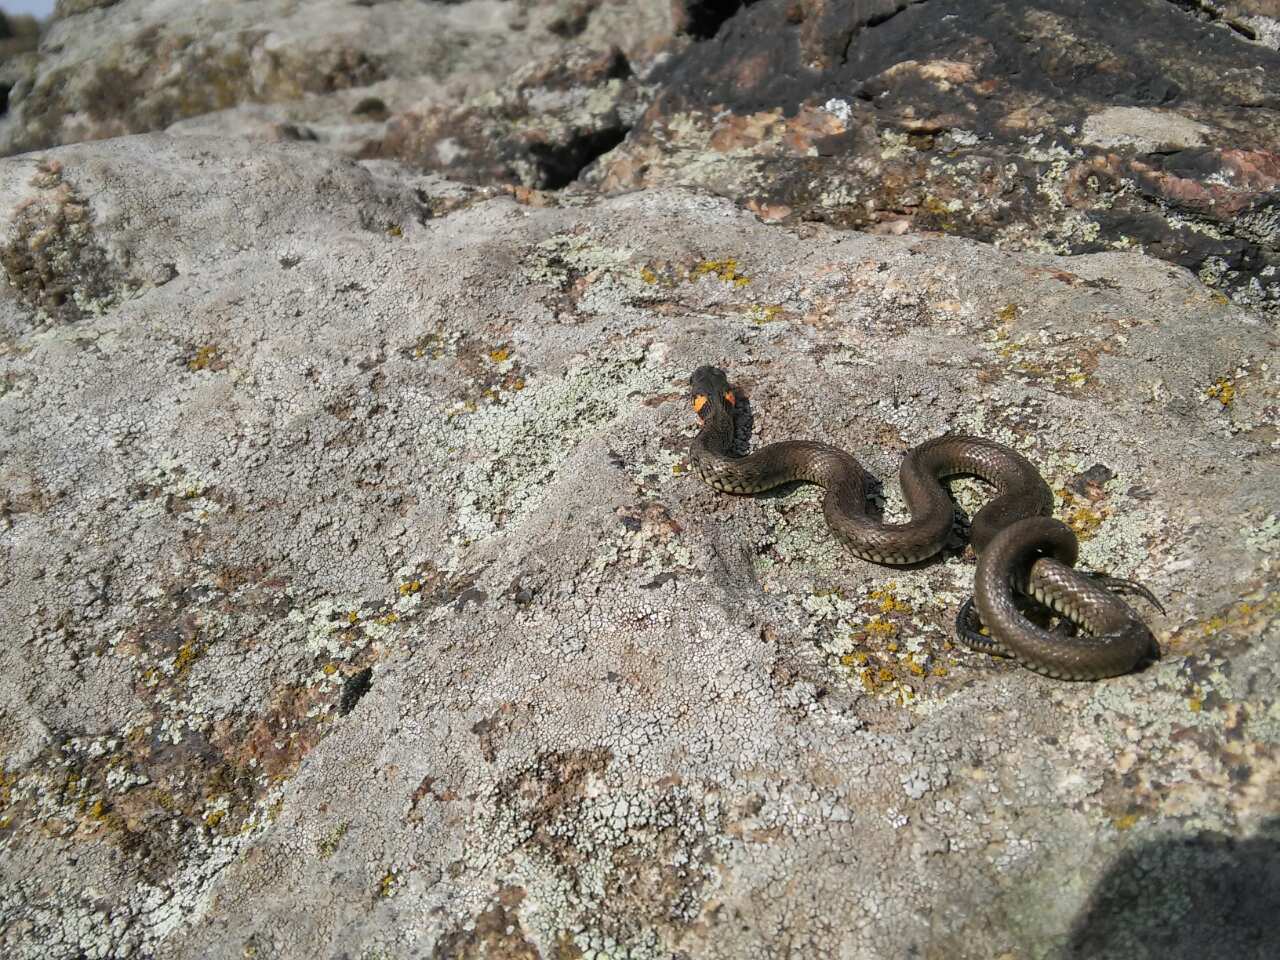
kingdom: Animalia
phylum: Chordata
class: Squamata
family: Colubridae
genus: Natrix
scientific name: Natrix natrix
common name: Grass snake
